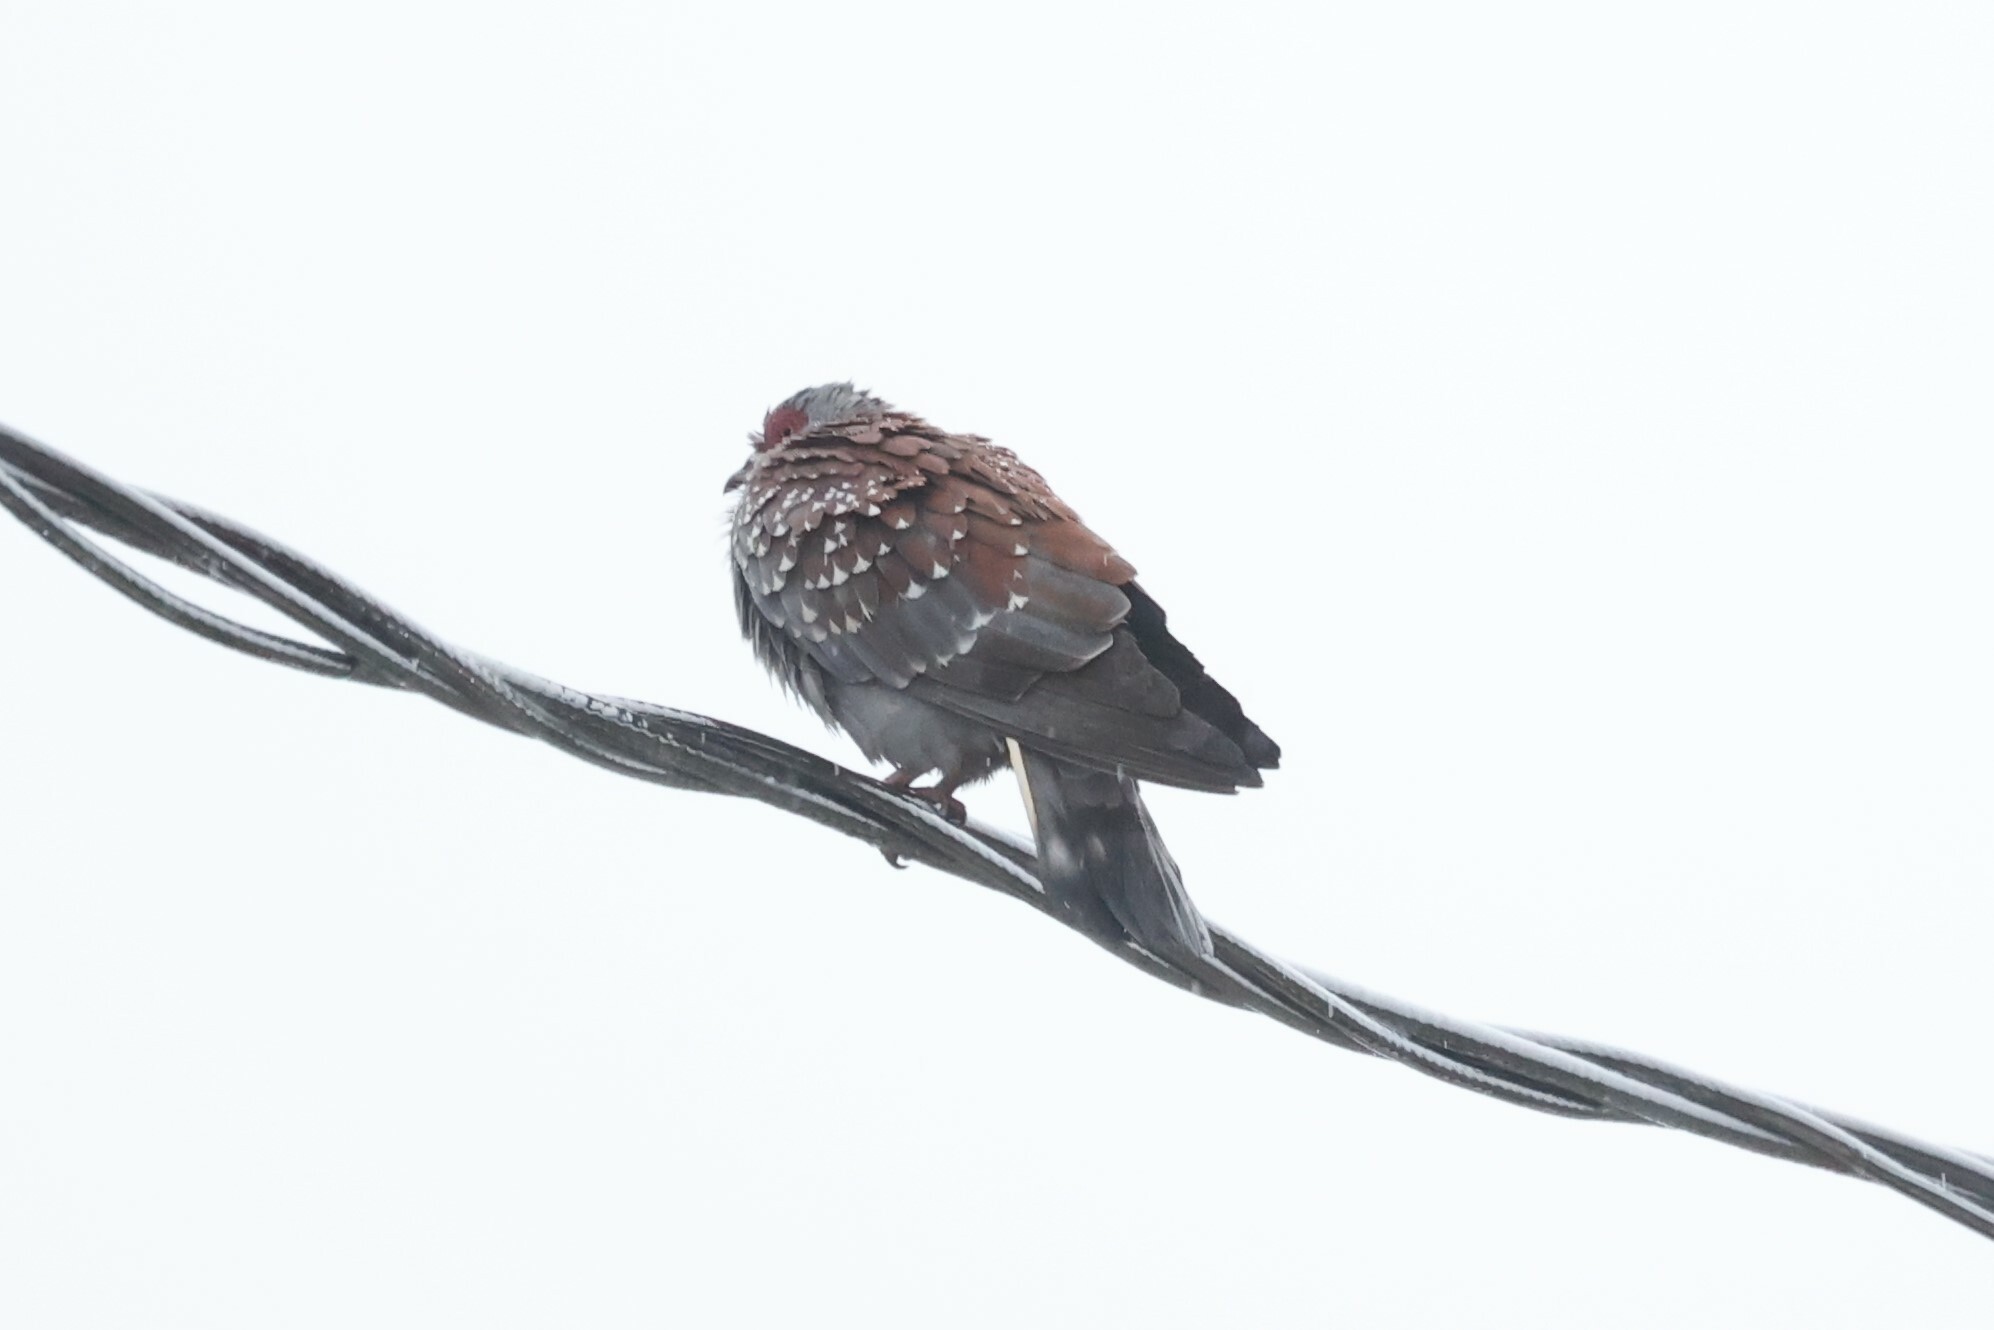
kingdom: Animalia
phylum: Chordata
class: Aves
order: Columbiformes
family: Columbidae
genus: Columba
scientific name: Columba guinea
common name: Speckled pigeon
